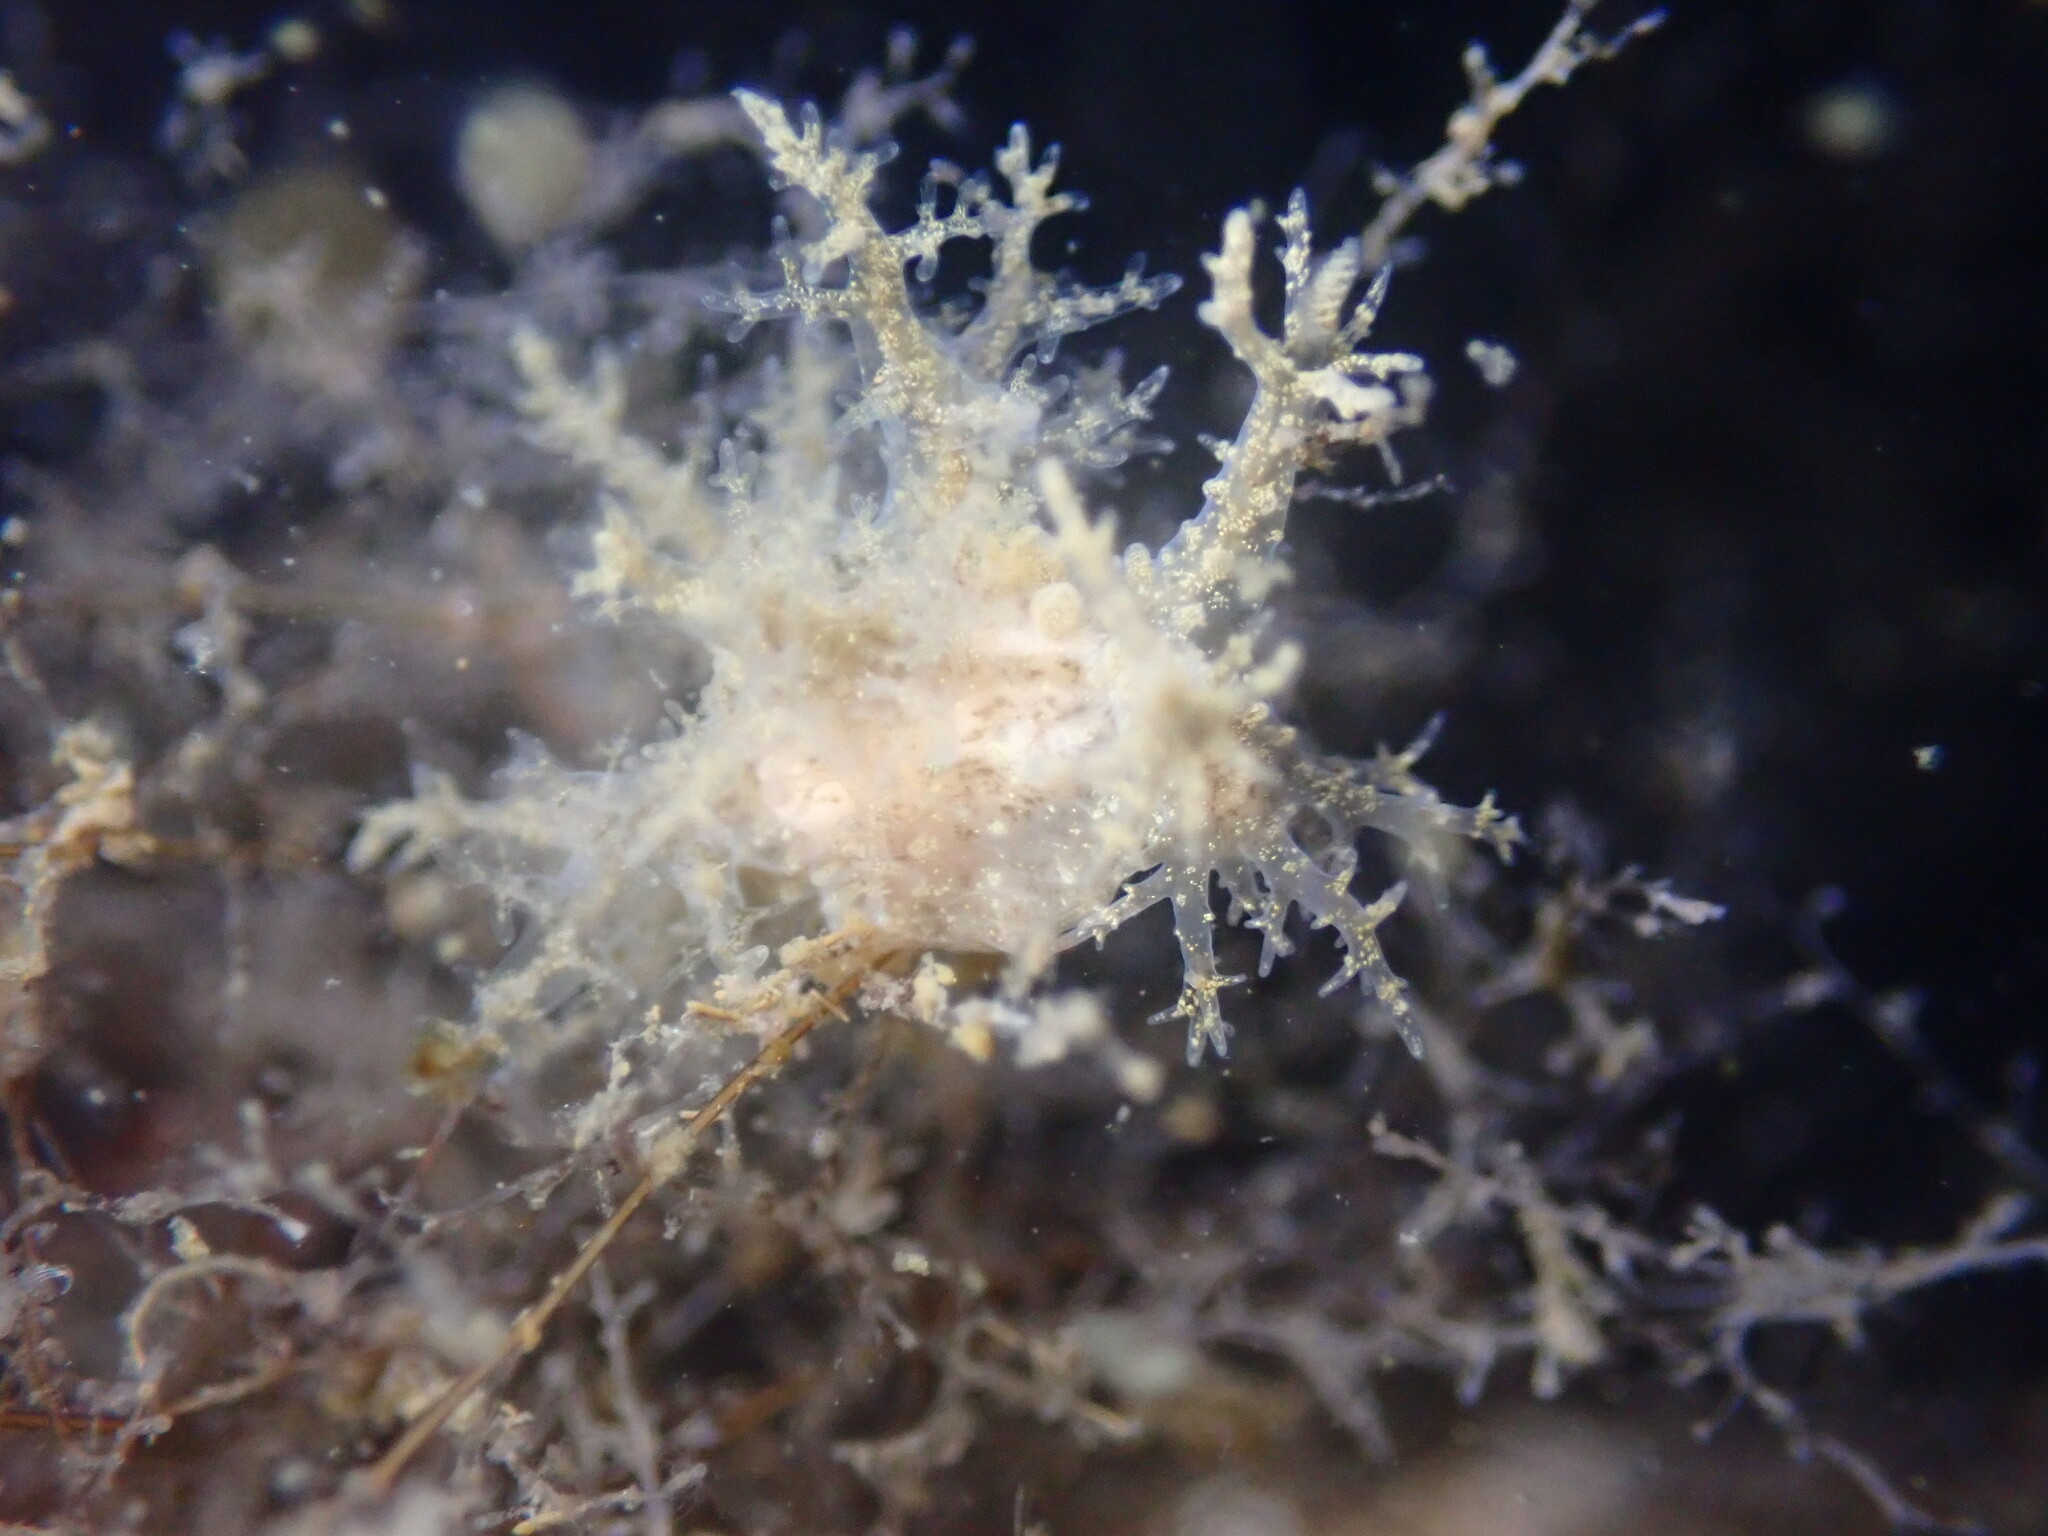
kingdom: Animalia
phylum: Mollusca
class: Gastropoda
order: Nudibranchia
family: Dendronotidae
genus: Dendronotus
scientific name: Dendronotus venustus
